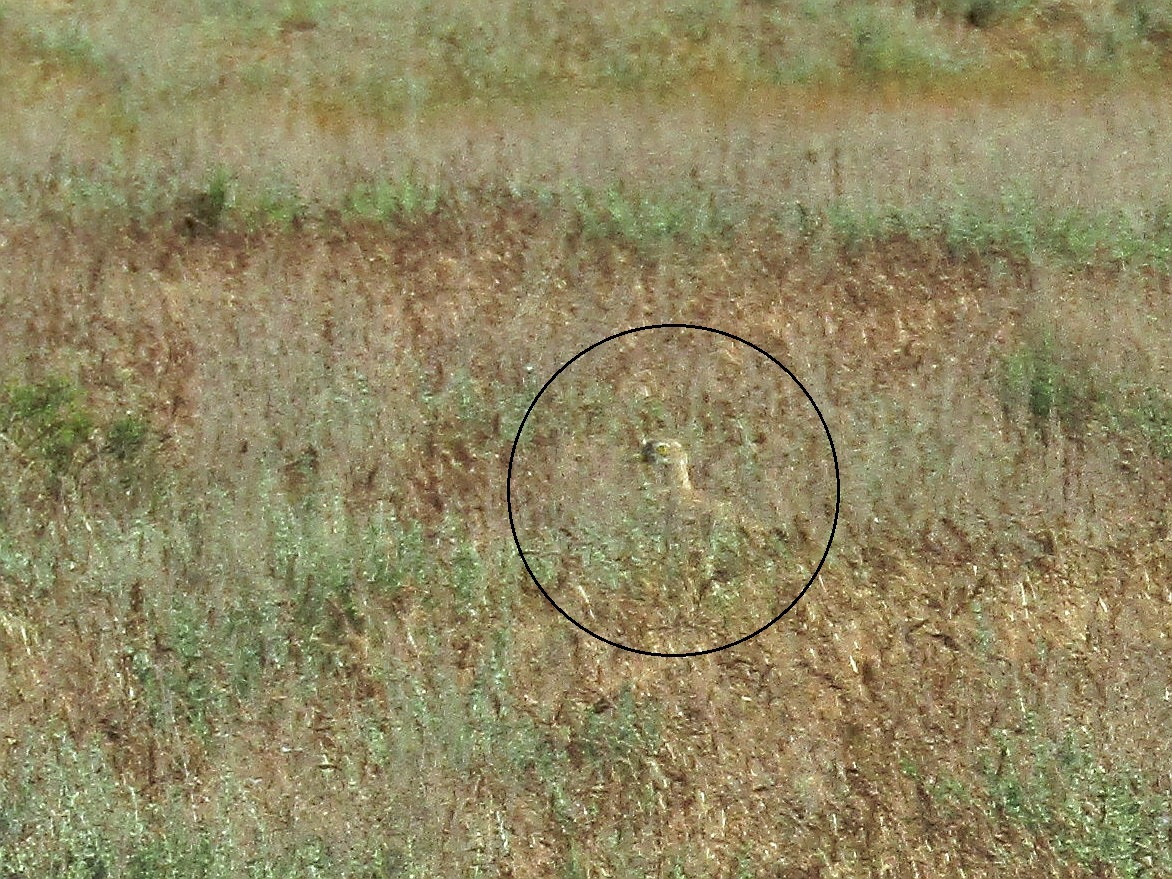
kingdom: Animalia
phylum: Chordata
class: Aves
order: Charadriiformes
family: Burhinidae
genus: Burhinus
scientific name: Burhinus oedicnemus
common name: Eurasian stone-curlew
